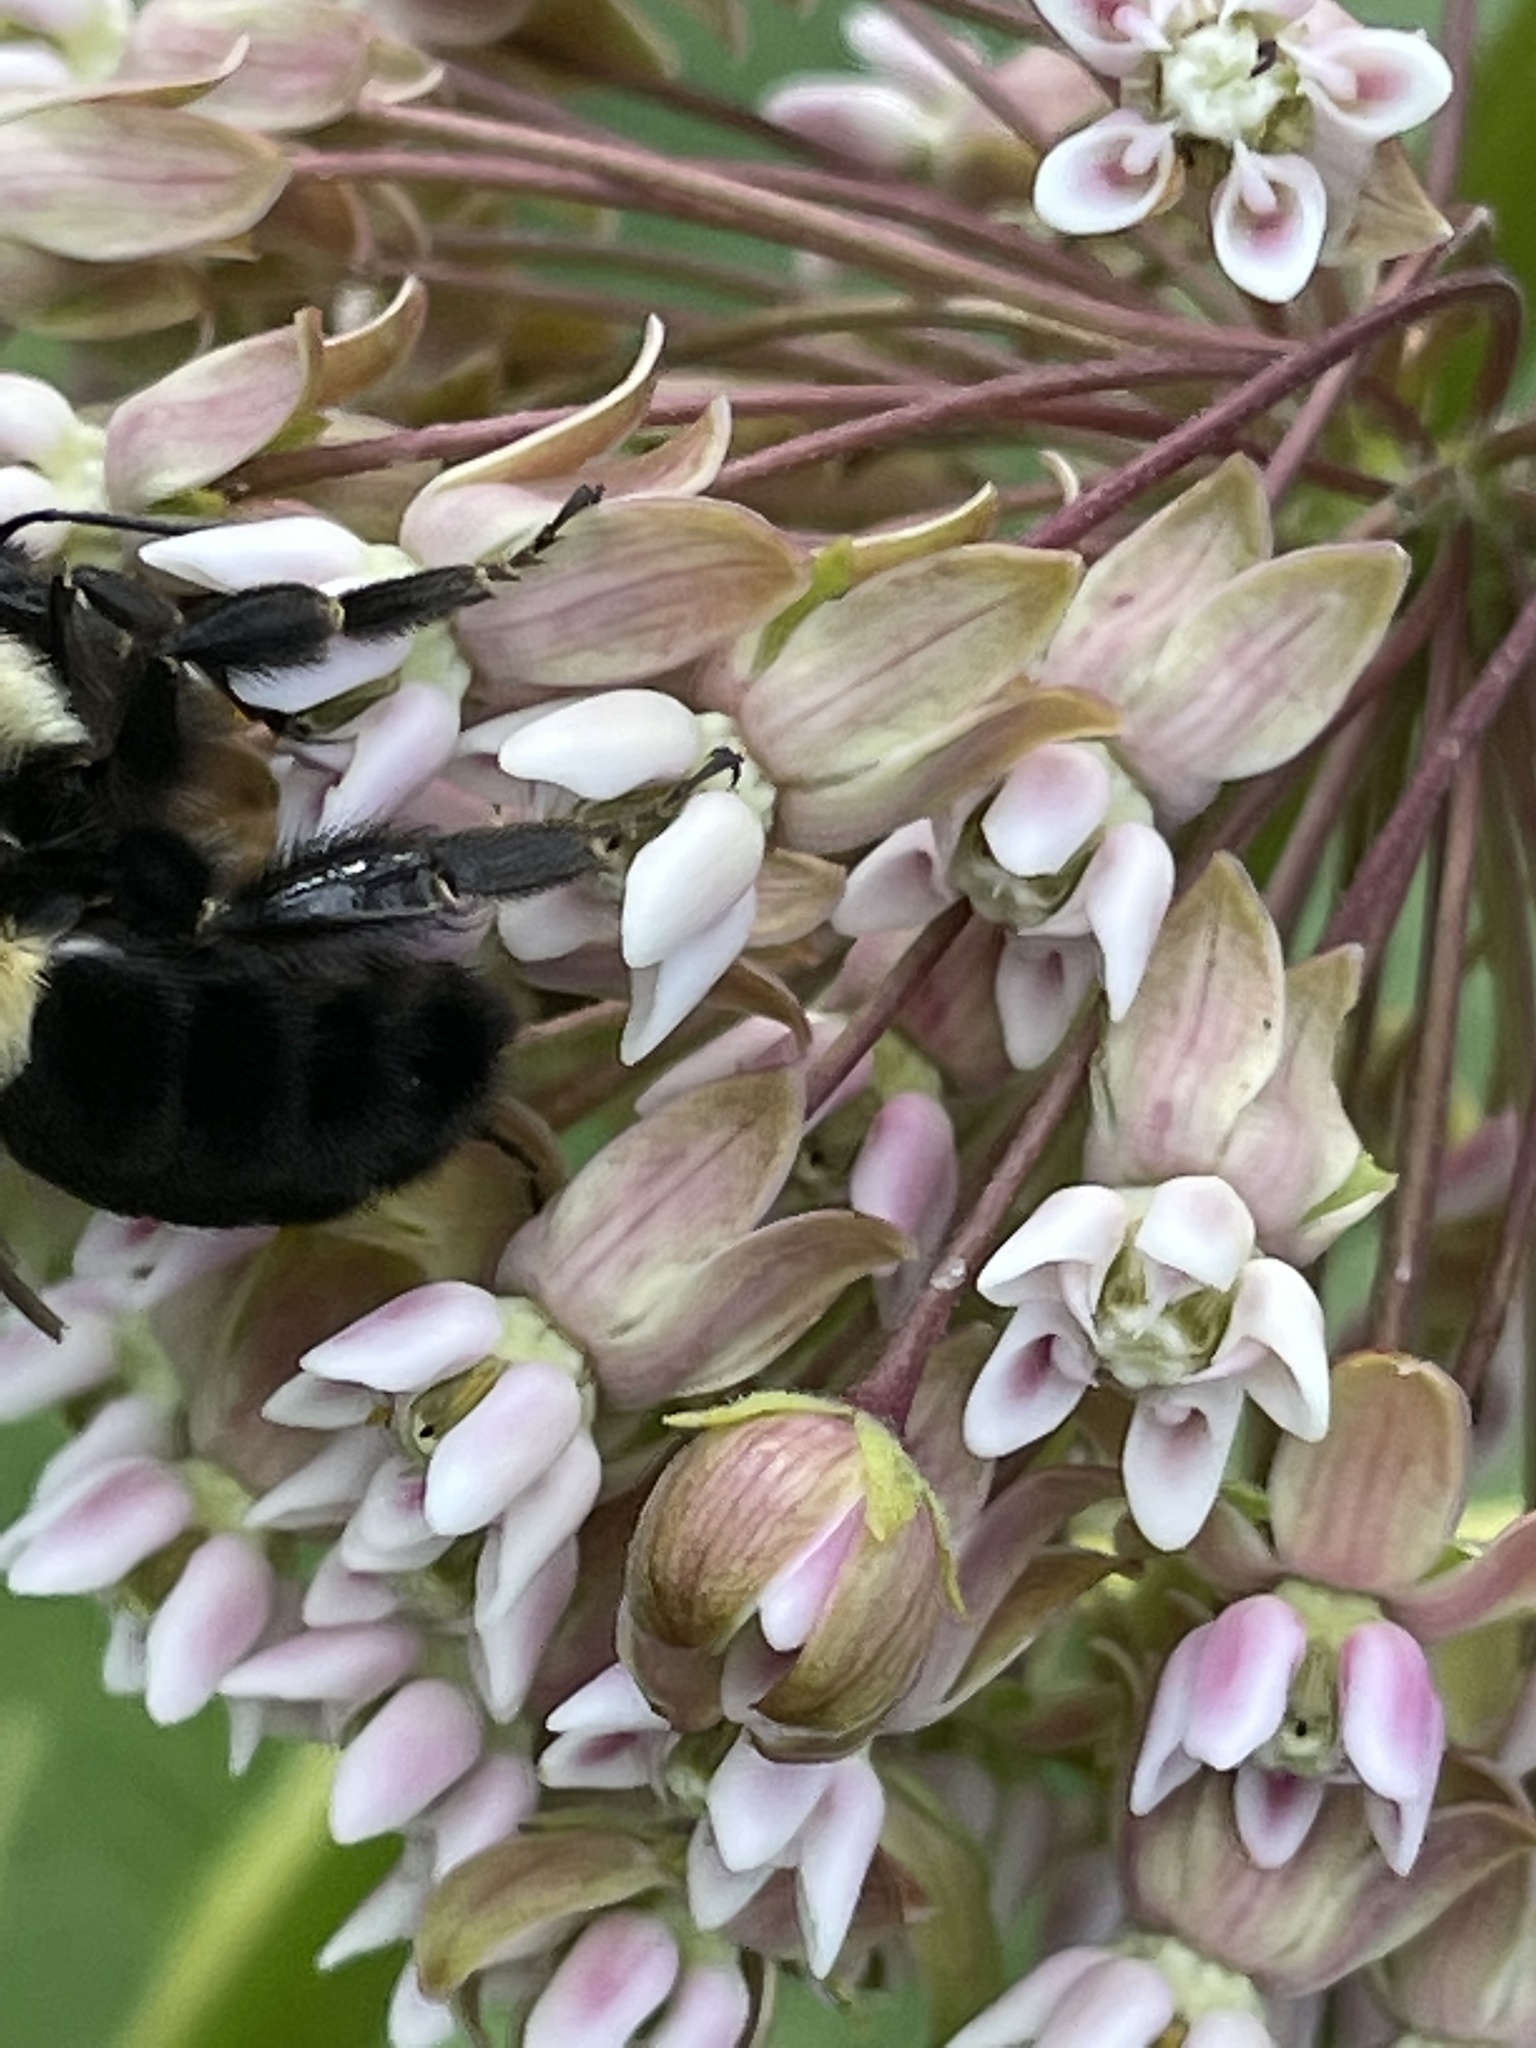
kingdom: Animalia
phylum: Arthropoda
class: Insecta
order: Hymenoptera
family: Apidae
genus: Bombus
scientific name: Bombus impatiens
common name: Common eastern bumble bee
